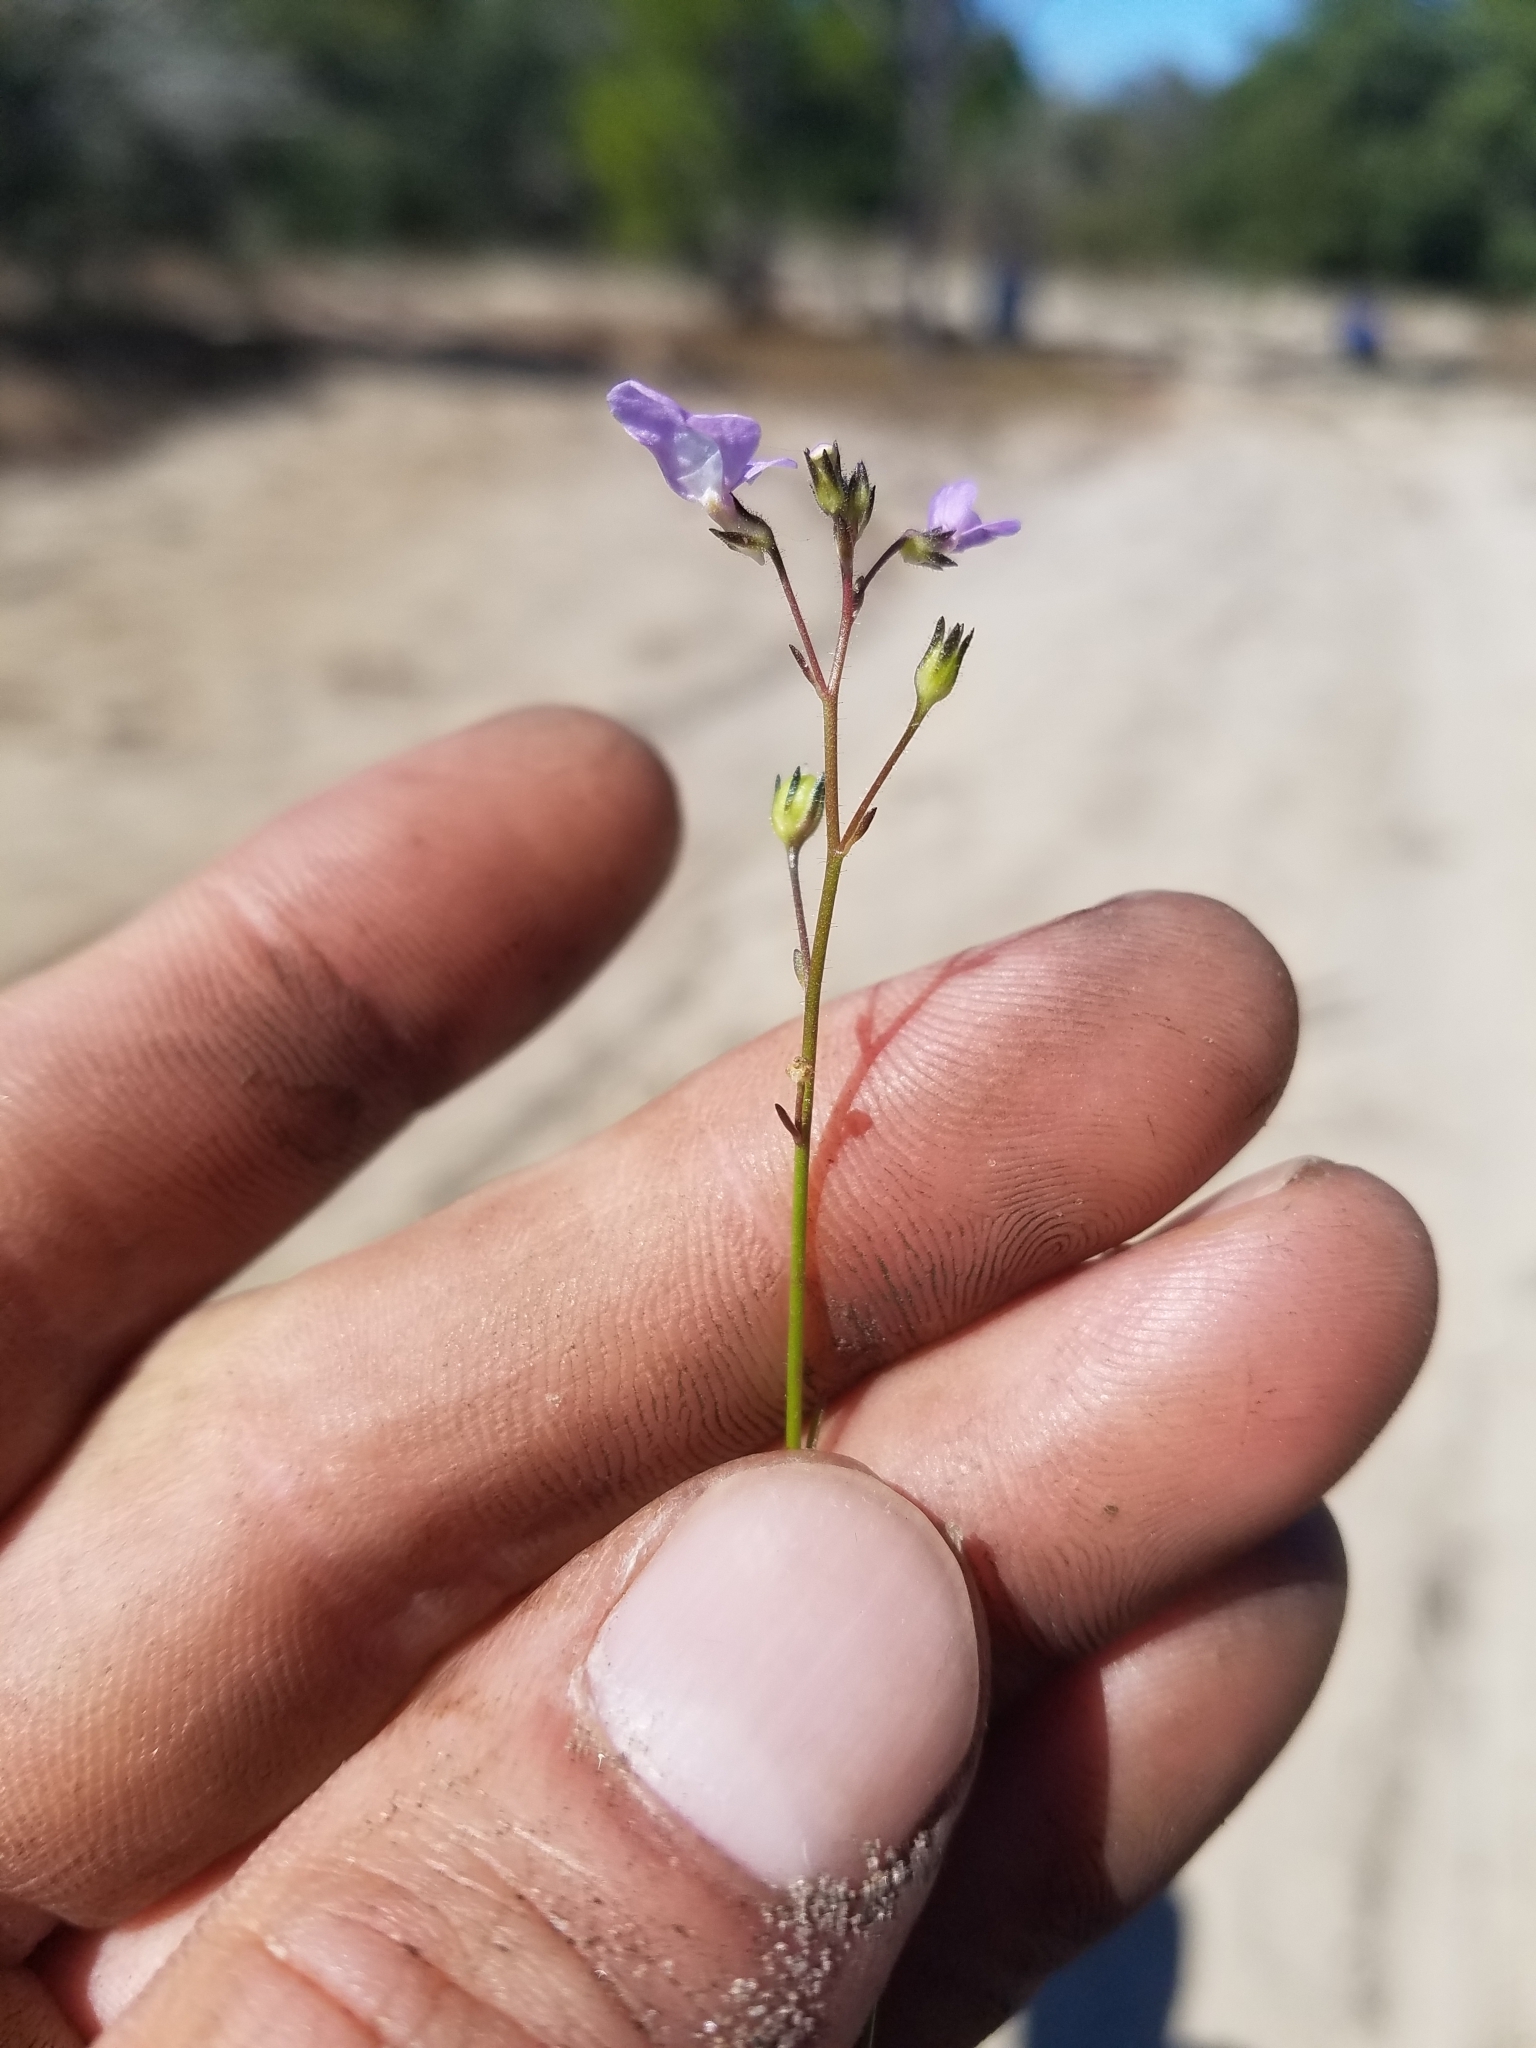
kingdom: Plantae
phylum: Tracheophyta
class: Magnoliopsida
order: Lamiales
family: Plantaginaceae
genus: Nuttallanthus
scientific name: Nuttallanthus floridanus
